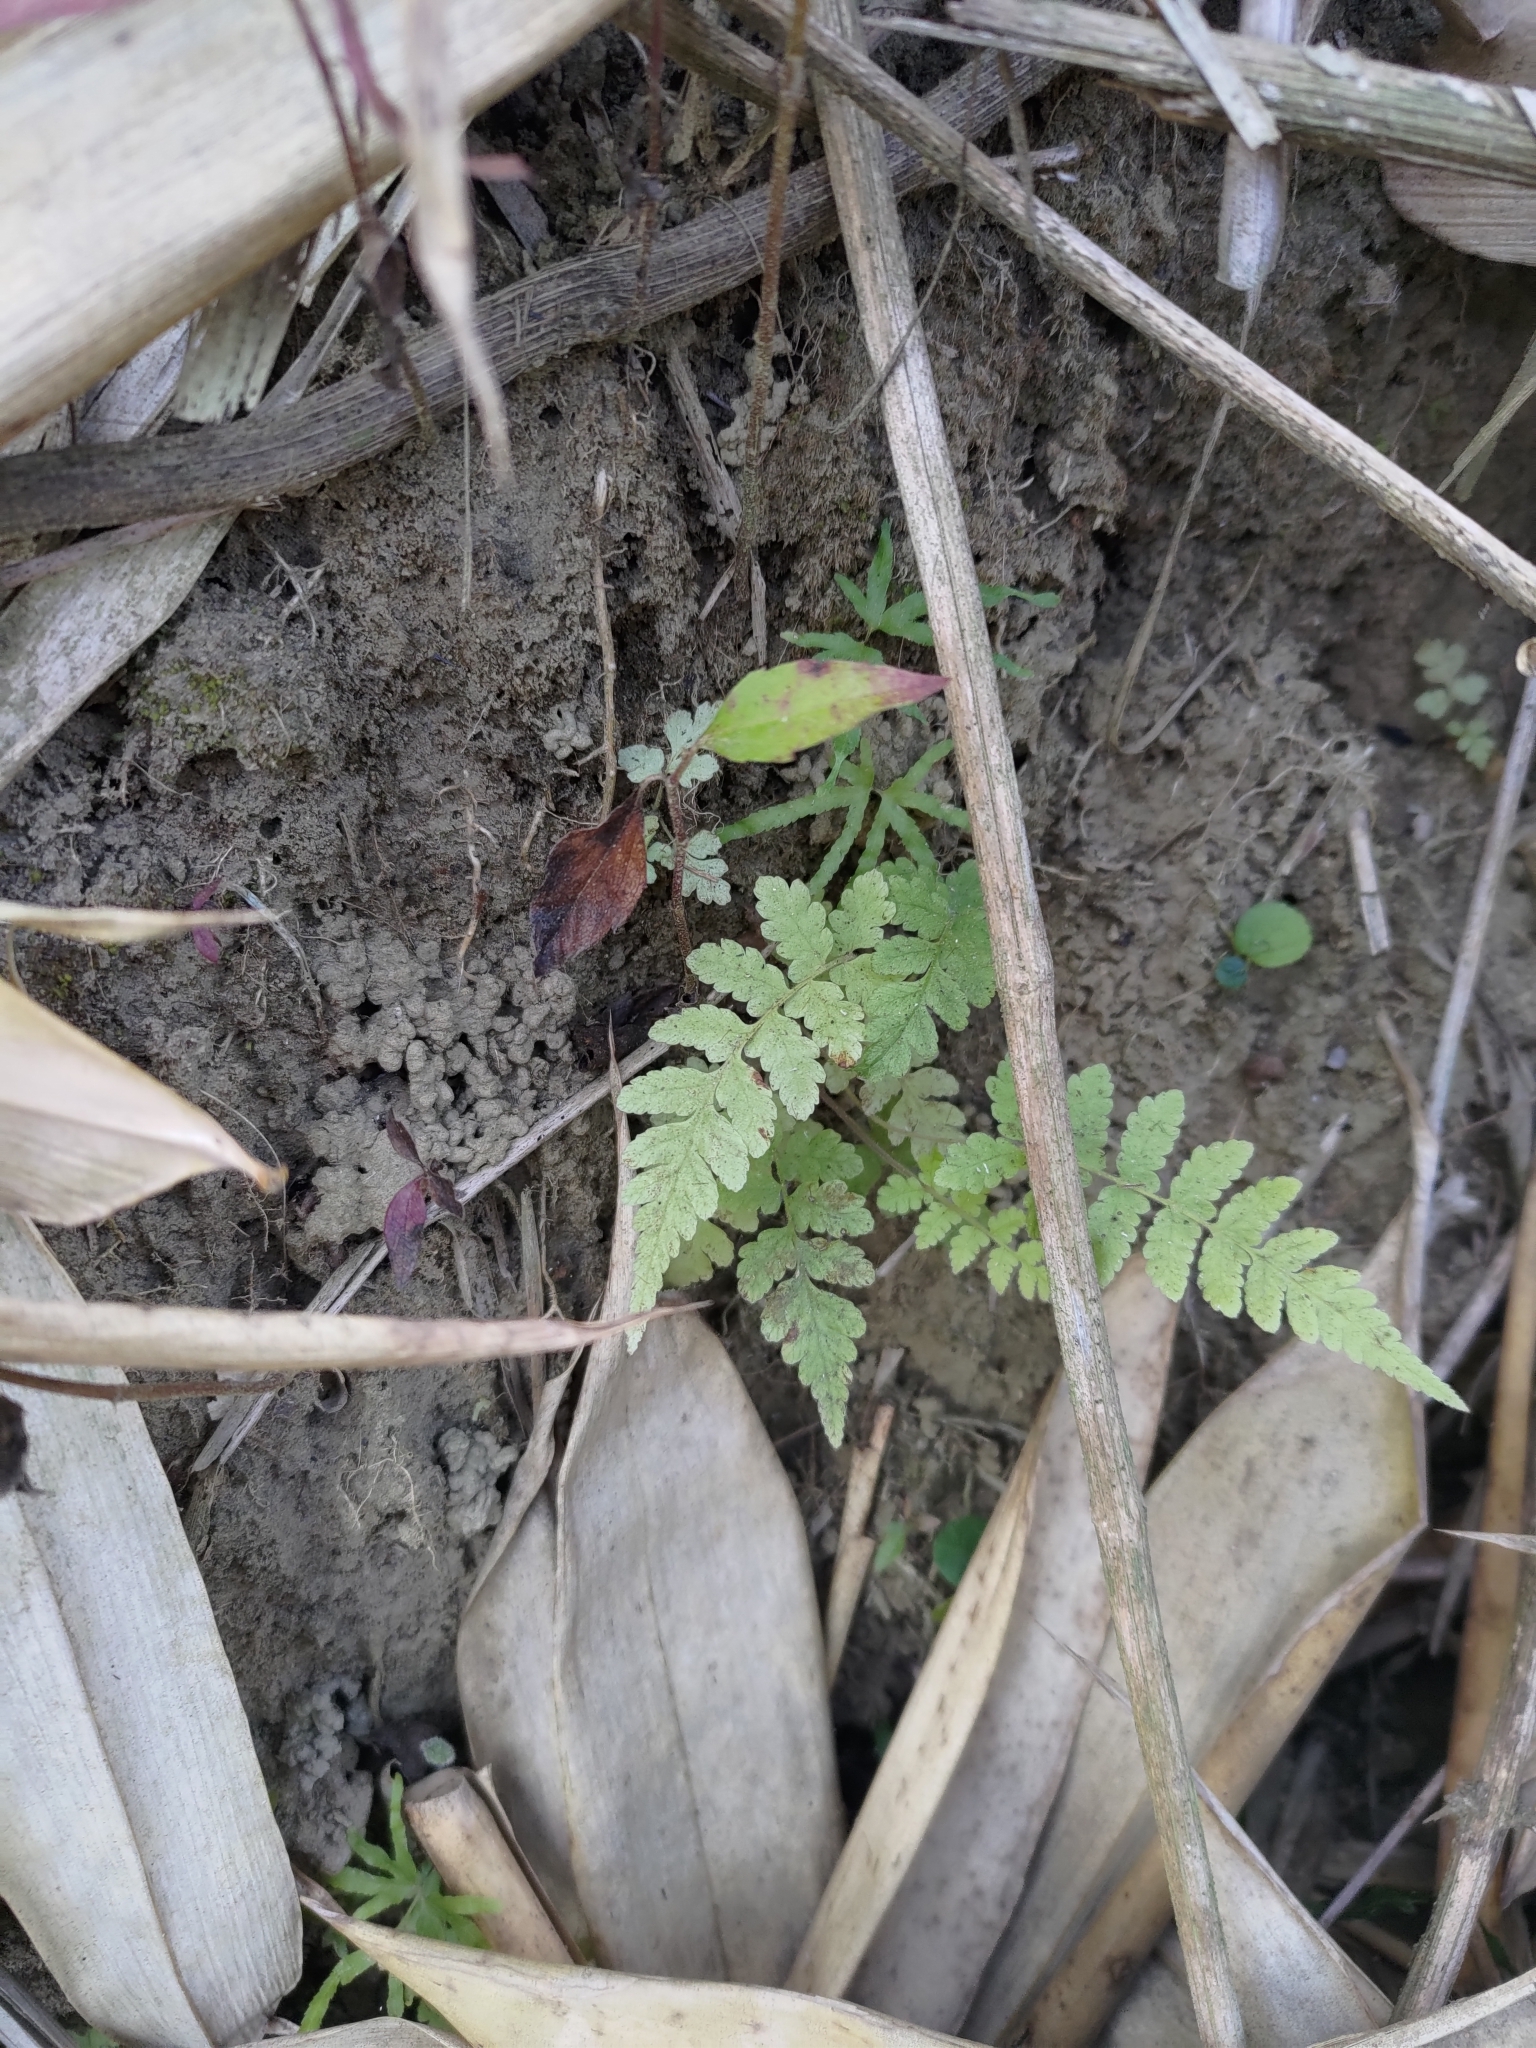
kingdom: Plantae
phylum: Tracheophyta
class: Polypodiopsida
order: Polypodiales
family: Thelypteridaceae
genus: Christella
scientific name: Christella parasitica
